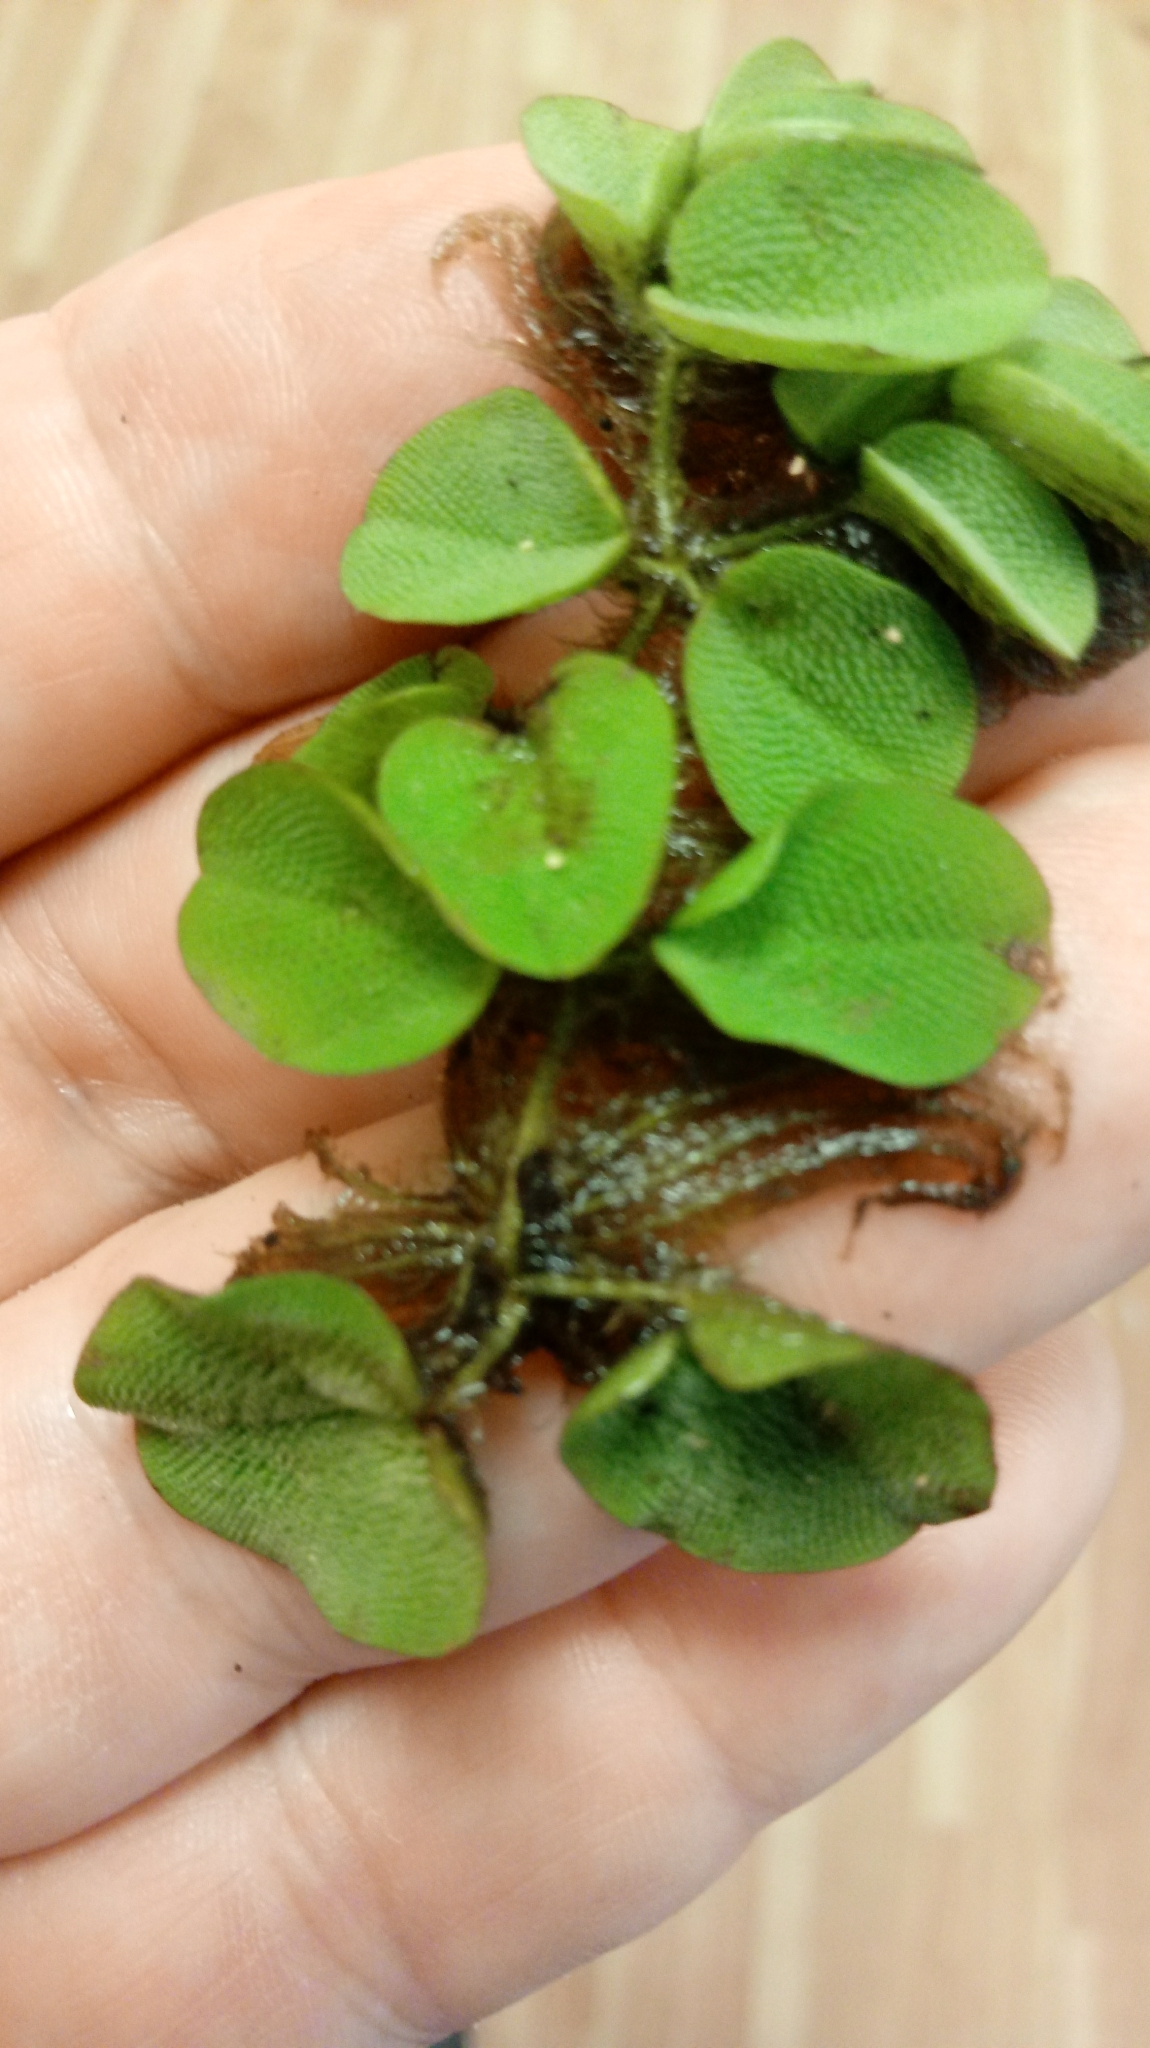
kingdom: Plantae
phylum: Tracheophyta
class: Polypodiopsida
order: Salviniales
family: Salviniaceae
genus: Salvinia
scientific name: Salvinia molesta
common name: Kariba weed
